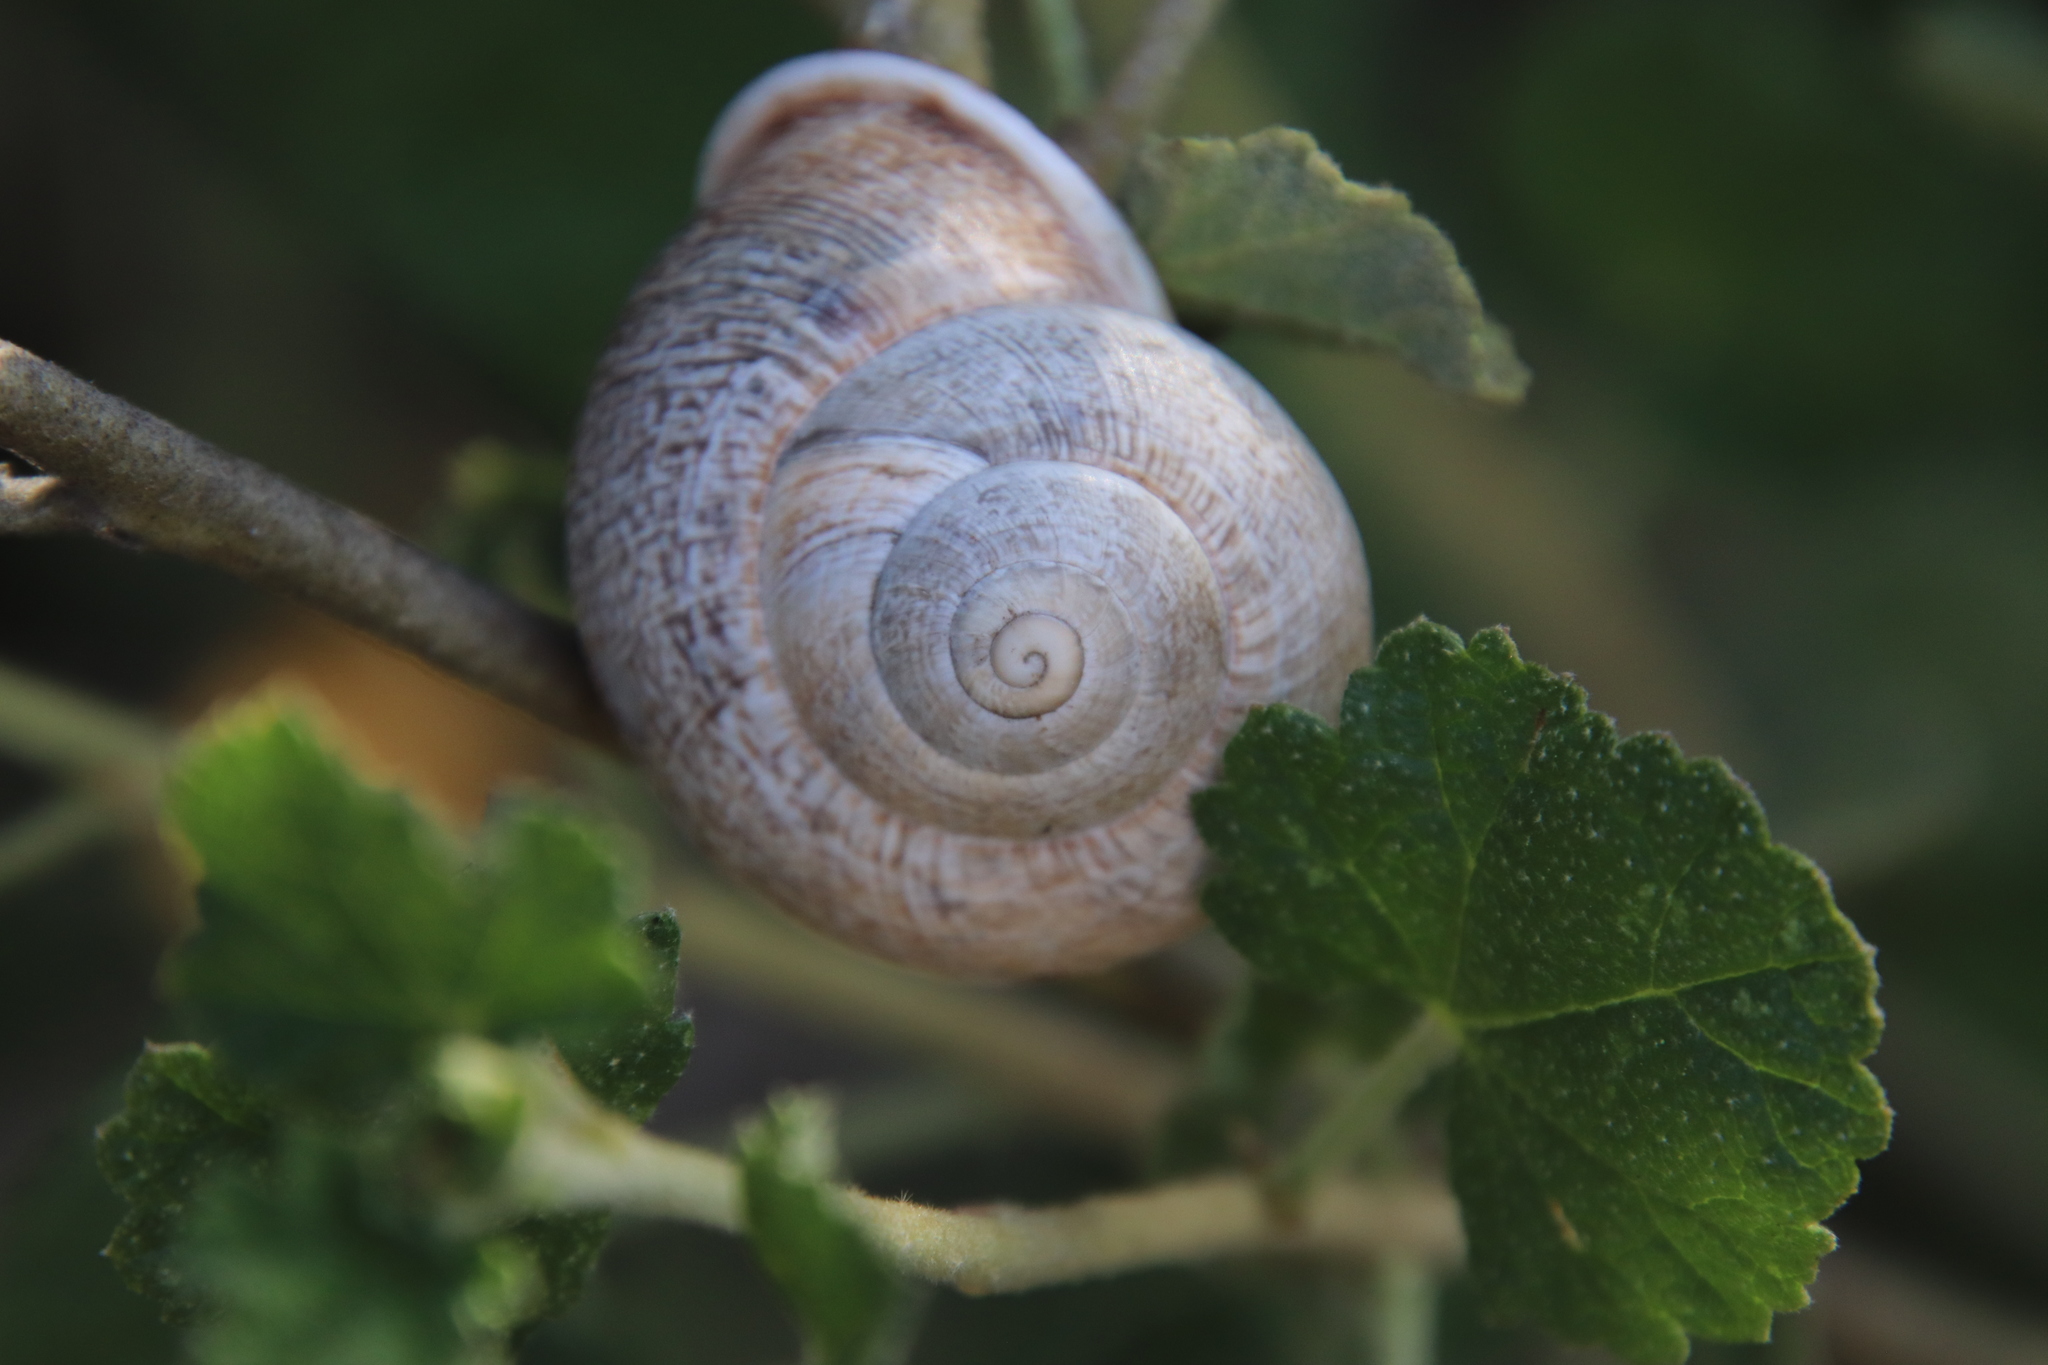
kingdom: Animalia
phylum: Mollusca
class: Gastropoda
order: Stylommatophora
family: Helicidae
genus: Otala
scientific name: Otala lactea
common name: Milk snail
